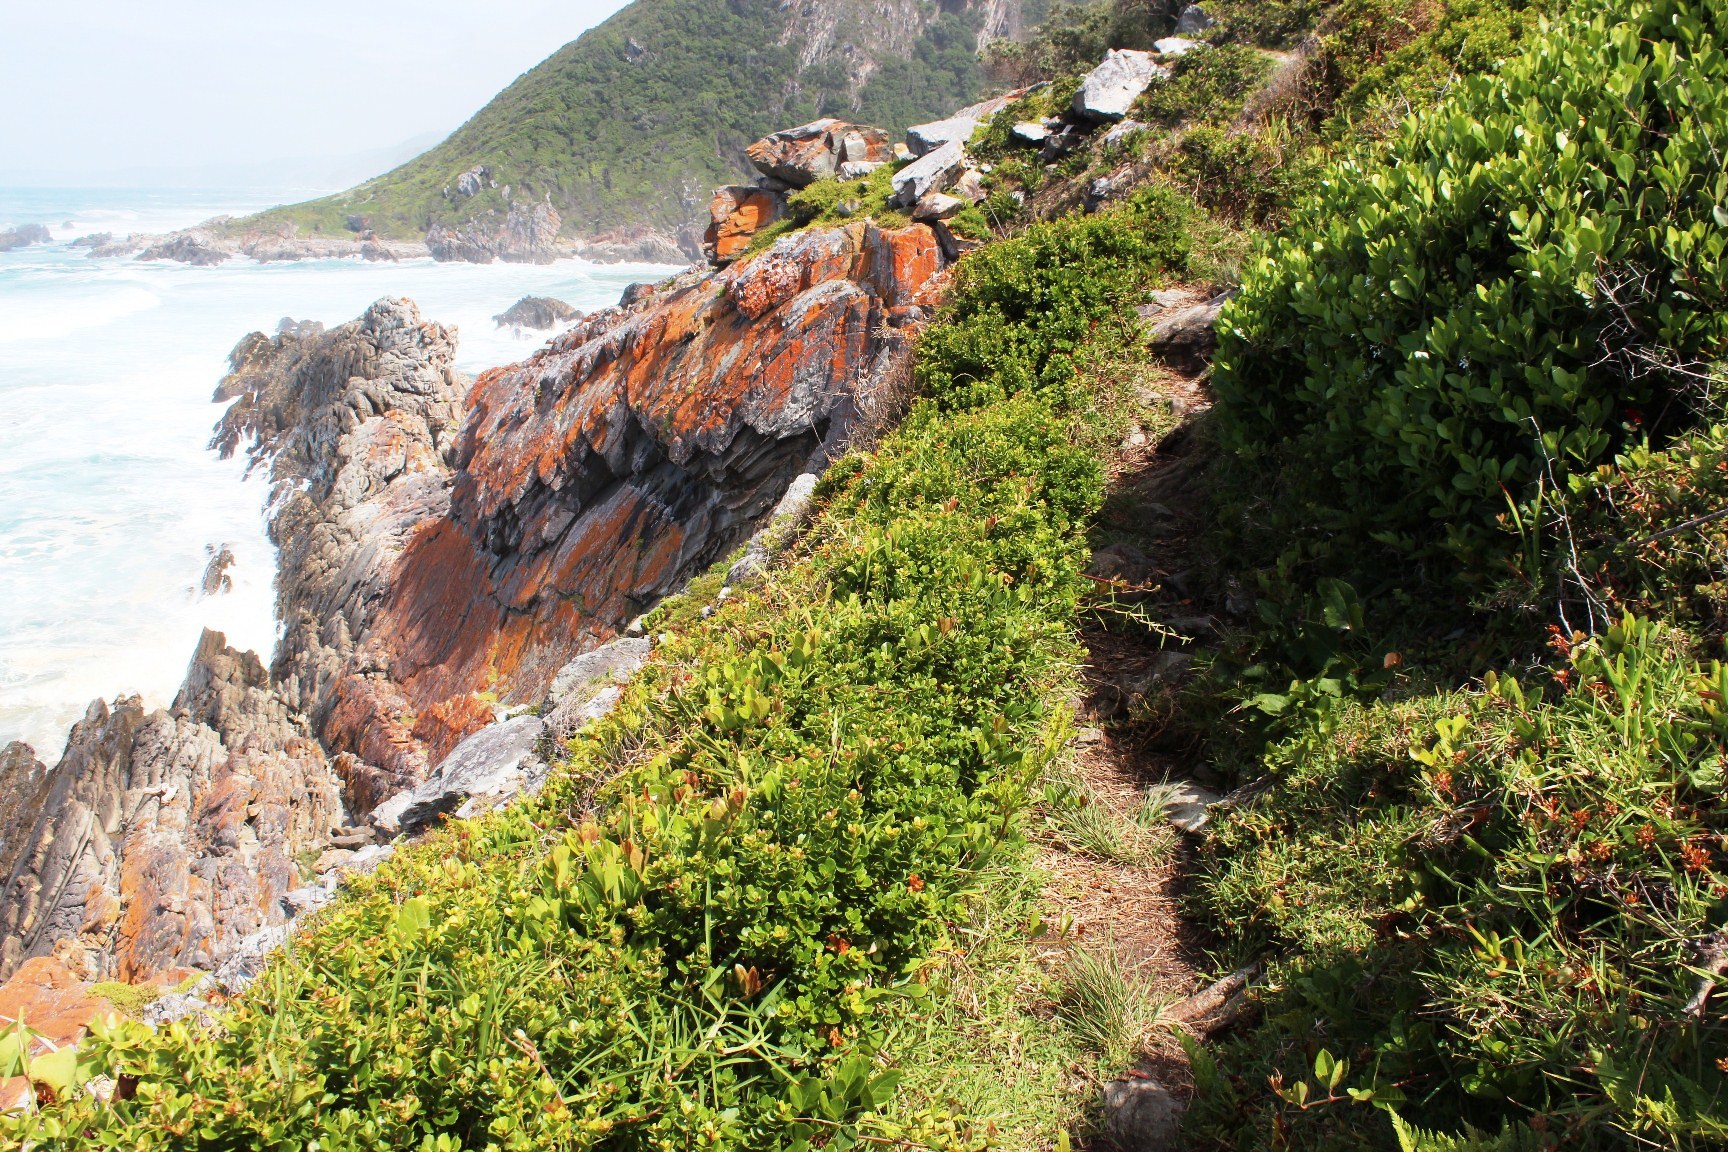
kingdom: Plantae
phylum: Tracheophyta
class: Magnoliopsida
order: Sapindales
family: Anacardiaceae
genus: Searsia
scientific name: Searsia crenata
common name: Crowberry
